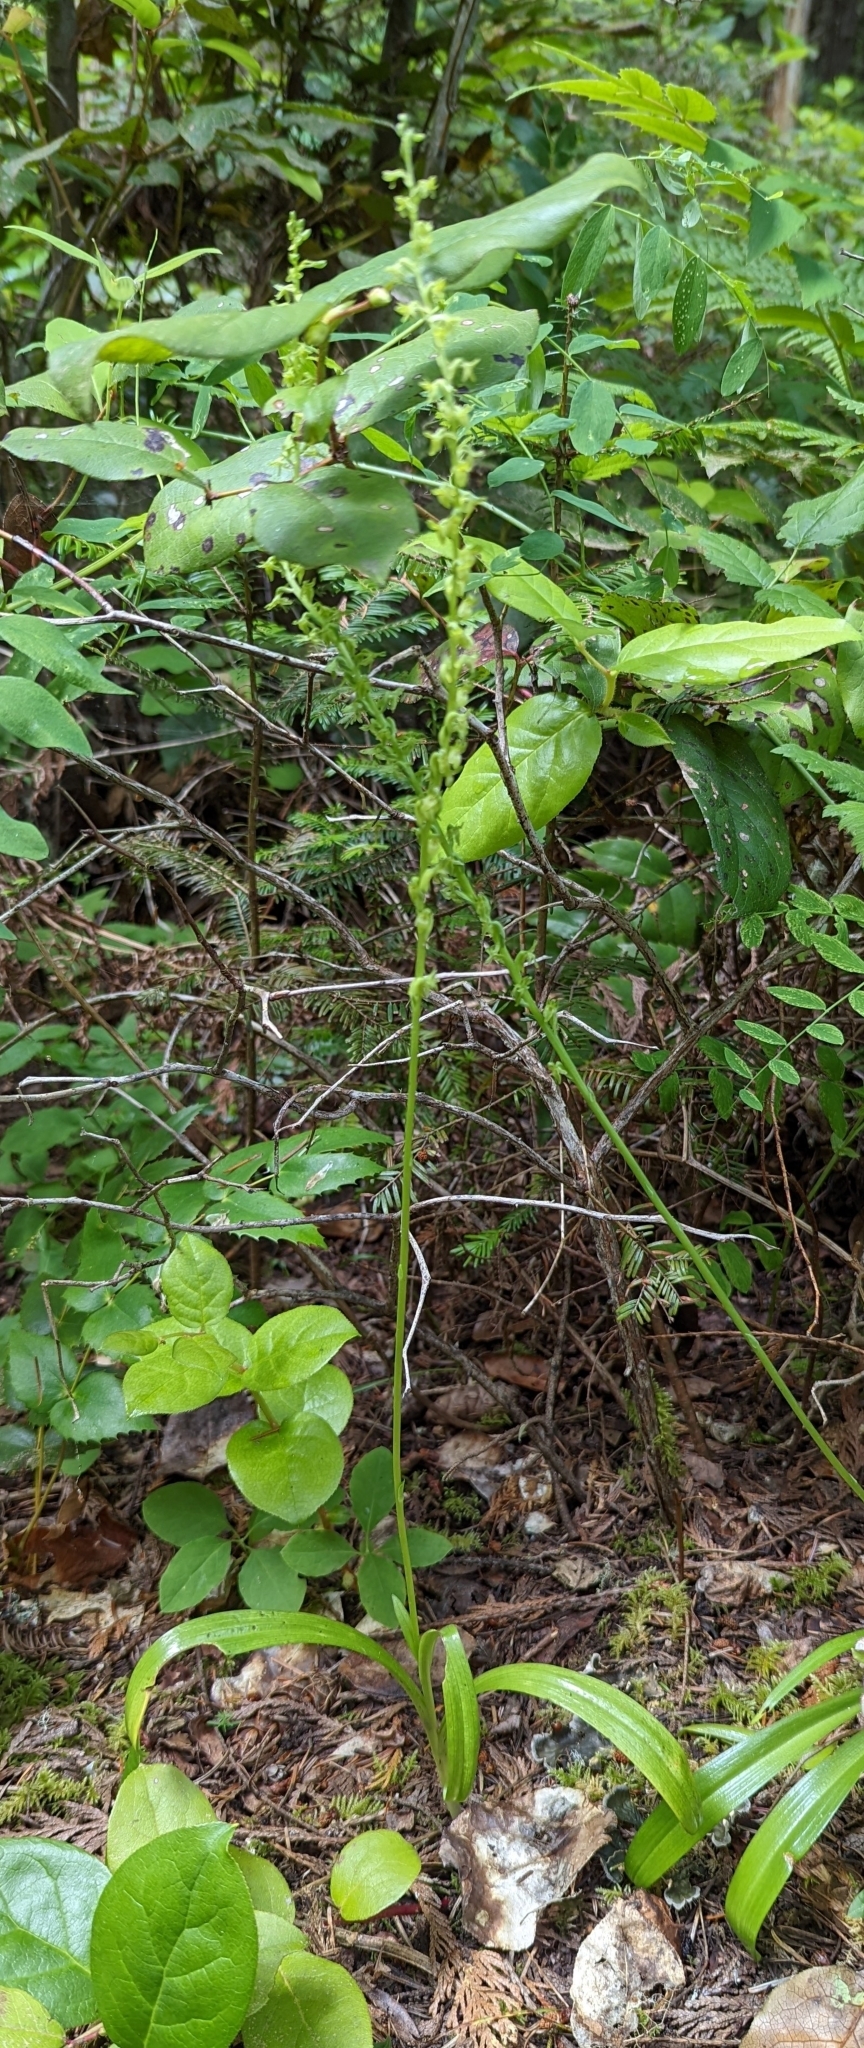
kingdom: Plantae
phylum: Tracheophyta
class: Liliopsida
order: Asparagales
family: Orchidaceae
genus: Platanthera
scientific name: Platanthera unalascensis
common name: Alaska bog orchid
